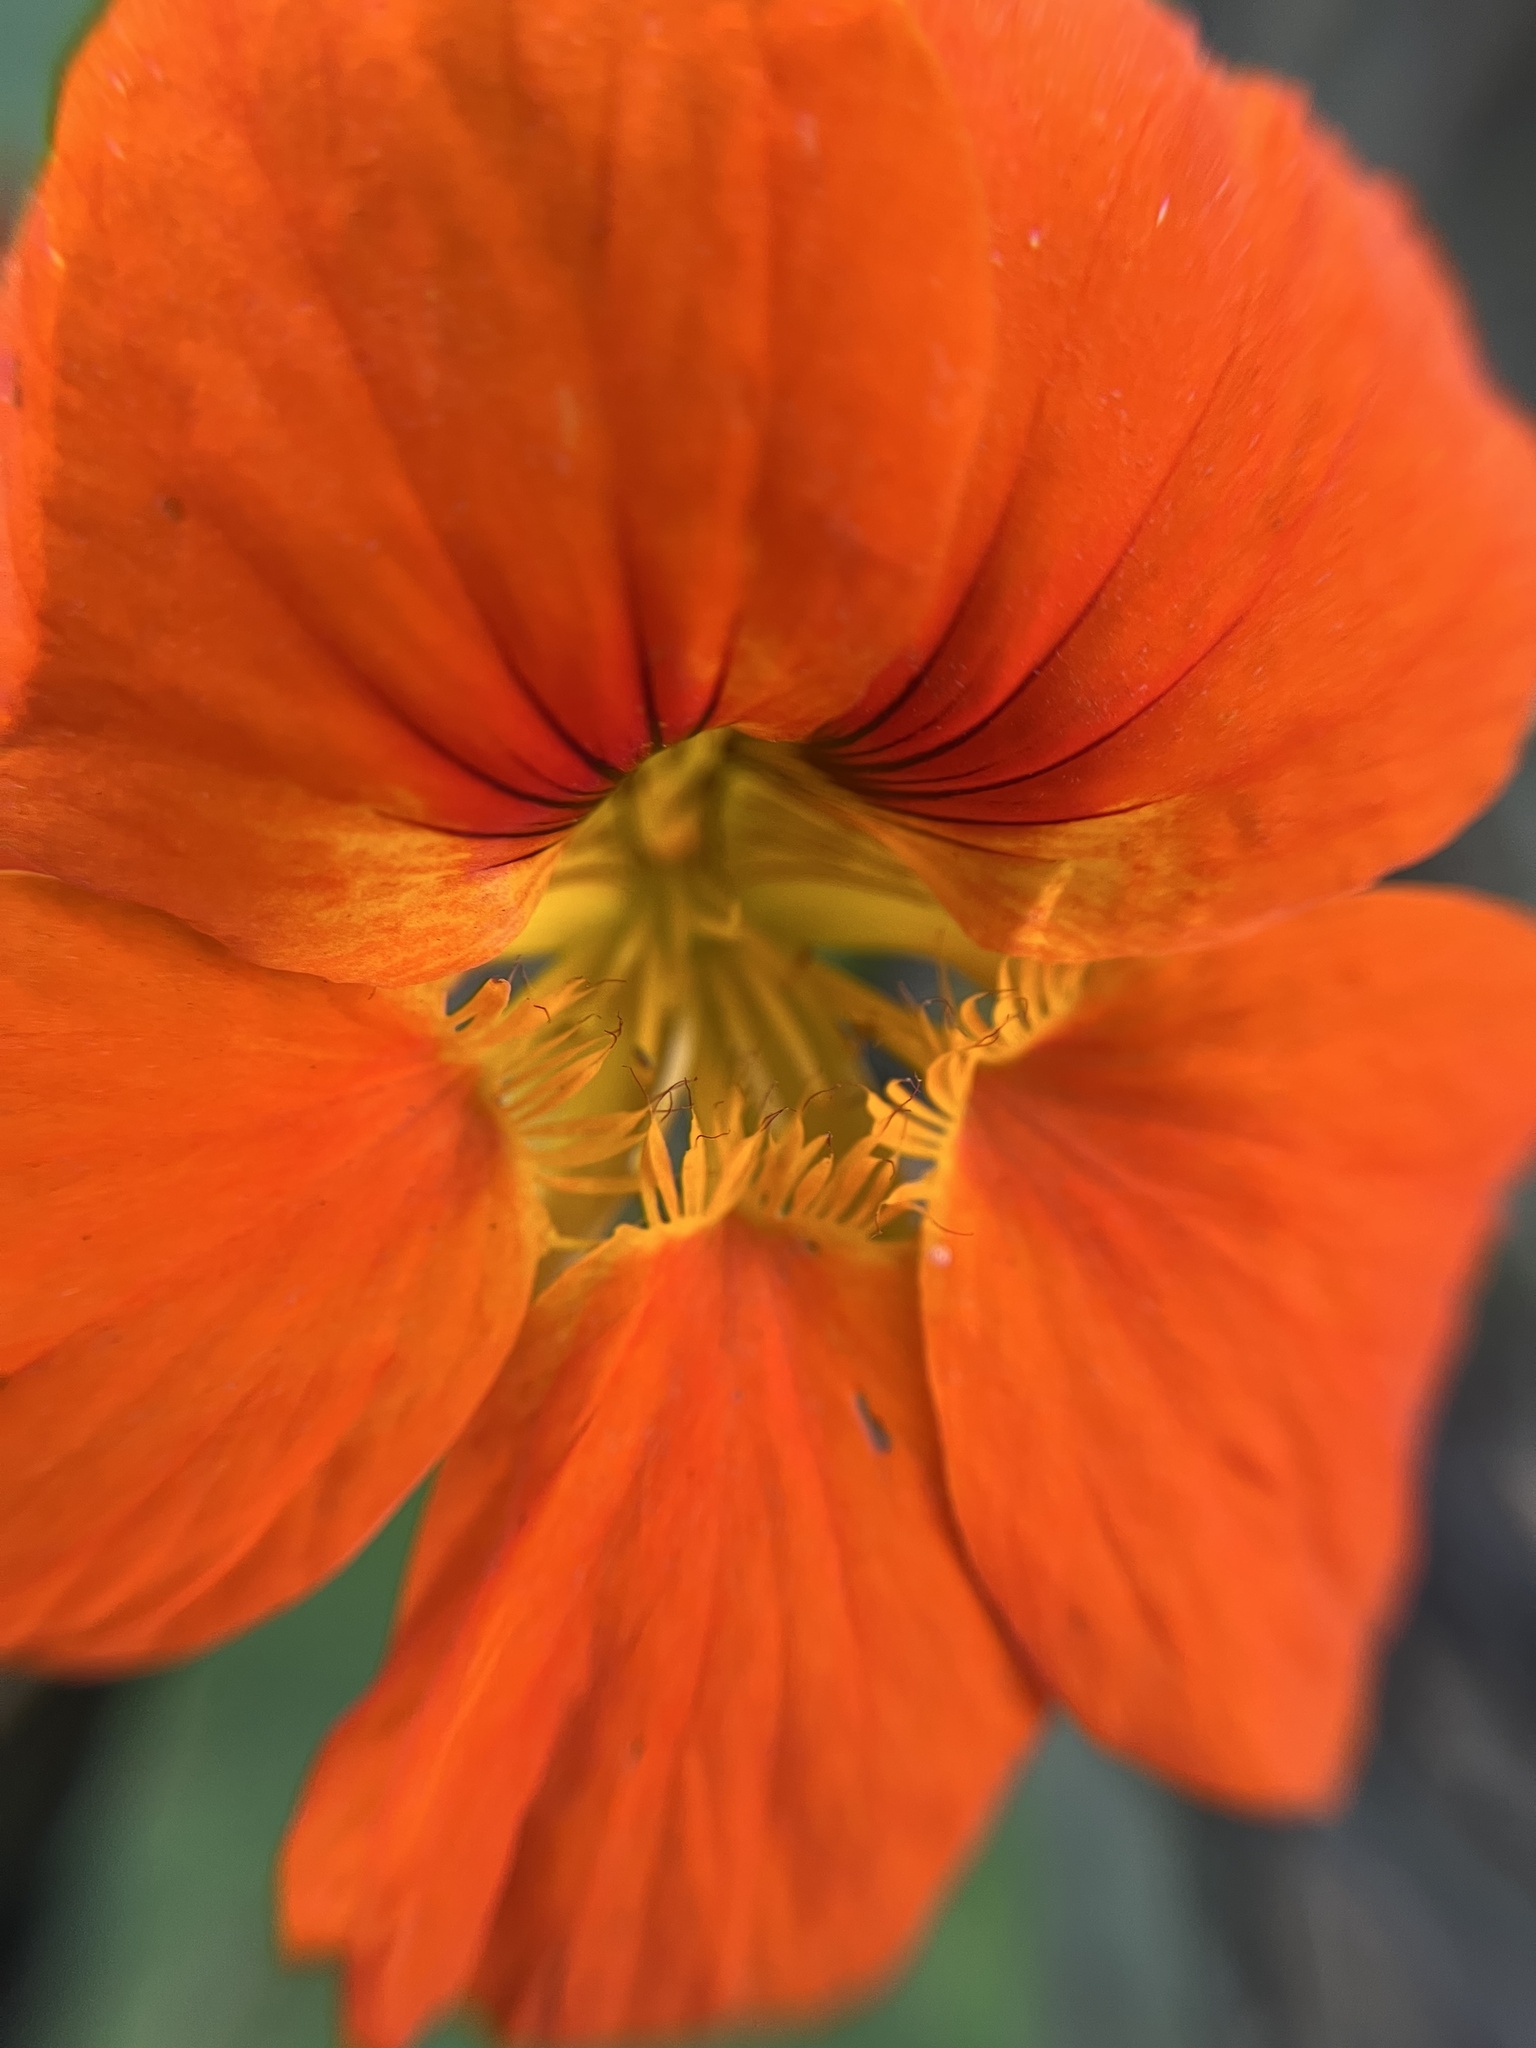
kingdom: Plantae
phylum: Tracheophyta
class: Magnoliopsida
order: Brassicales
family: Tropaeolaceae
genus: Tropaeolum
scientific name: Tropaeolum majus
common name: Nasturtium
